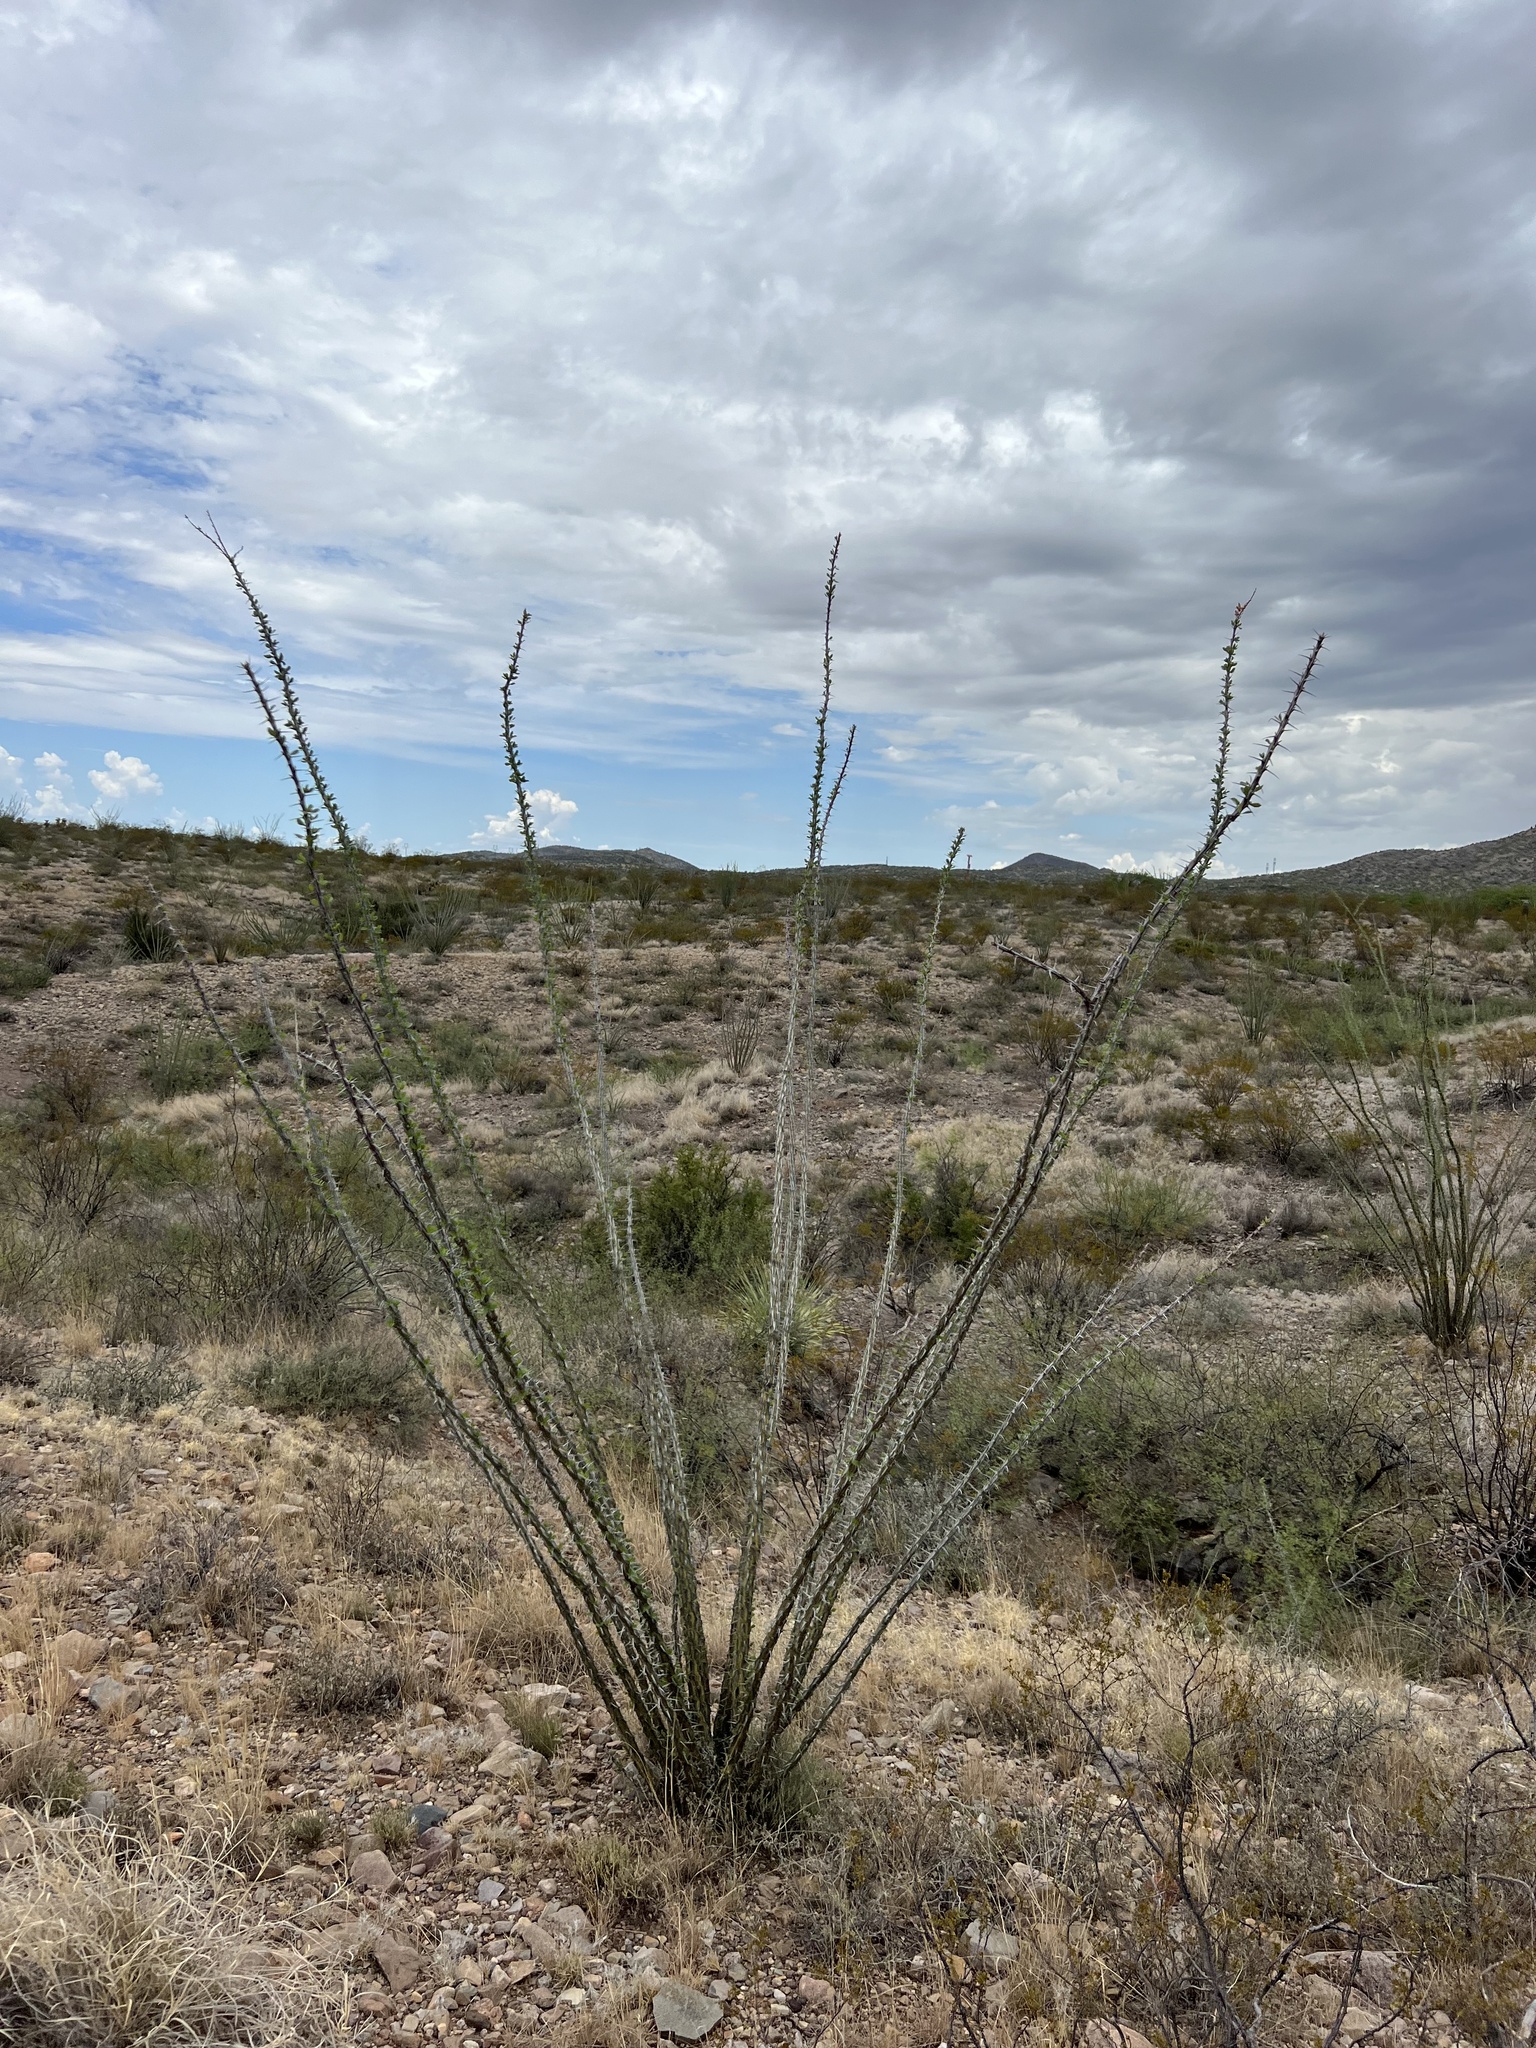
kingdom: Plantae
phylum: Tracheophyta
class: Magnoliopsida
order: Ericales
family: Fouquieriaceae
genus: Fouquieria
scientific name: Fouquieria splendens
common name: Vine-cactus
